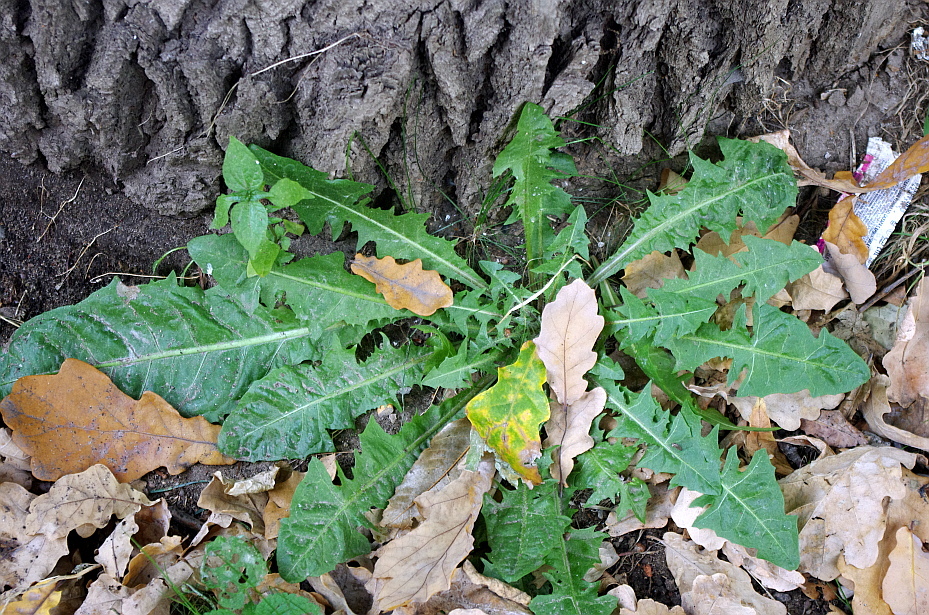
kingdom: Plantae
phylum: Tracheophyta
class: Magnoliopsida
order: Asterales
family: Asteraceae
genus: Taraxacum
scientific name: Taraxacum officinale
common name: Common dandelion
